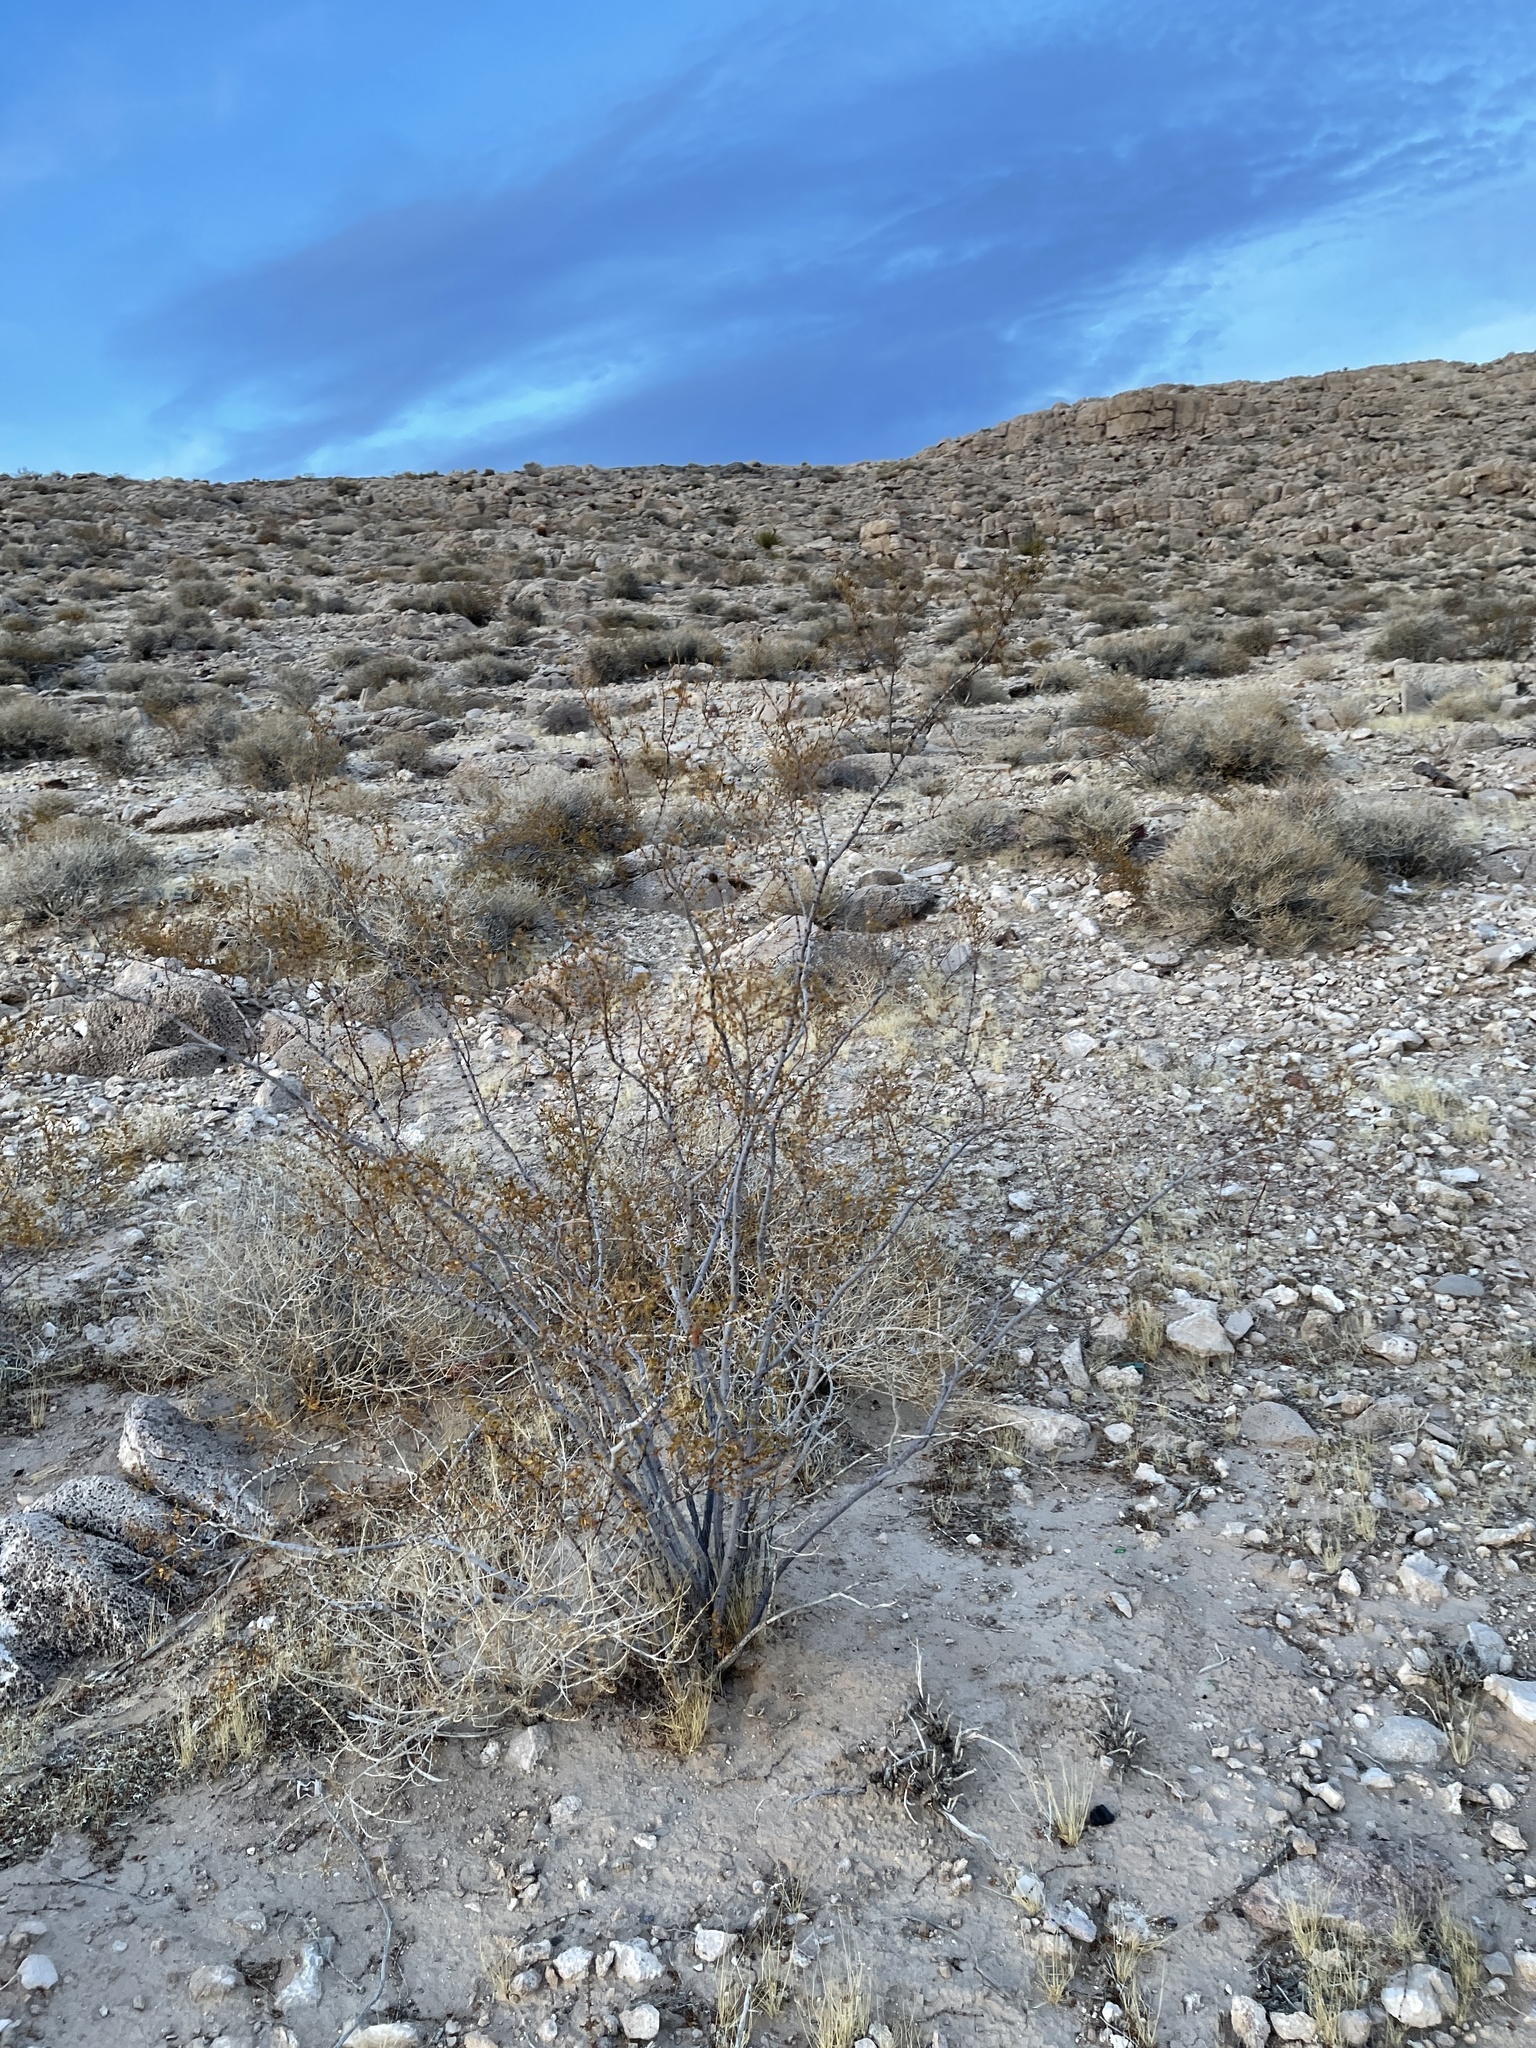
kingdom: Plantae
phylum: Tracheophyta
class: Magnoliopsida
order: Zygophyllales
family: Zygophyllaceae
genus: Larrea
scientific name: Larrea tridentata
